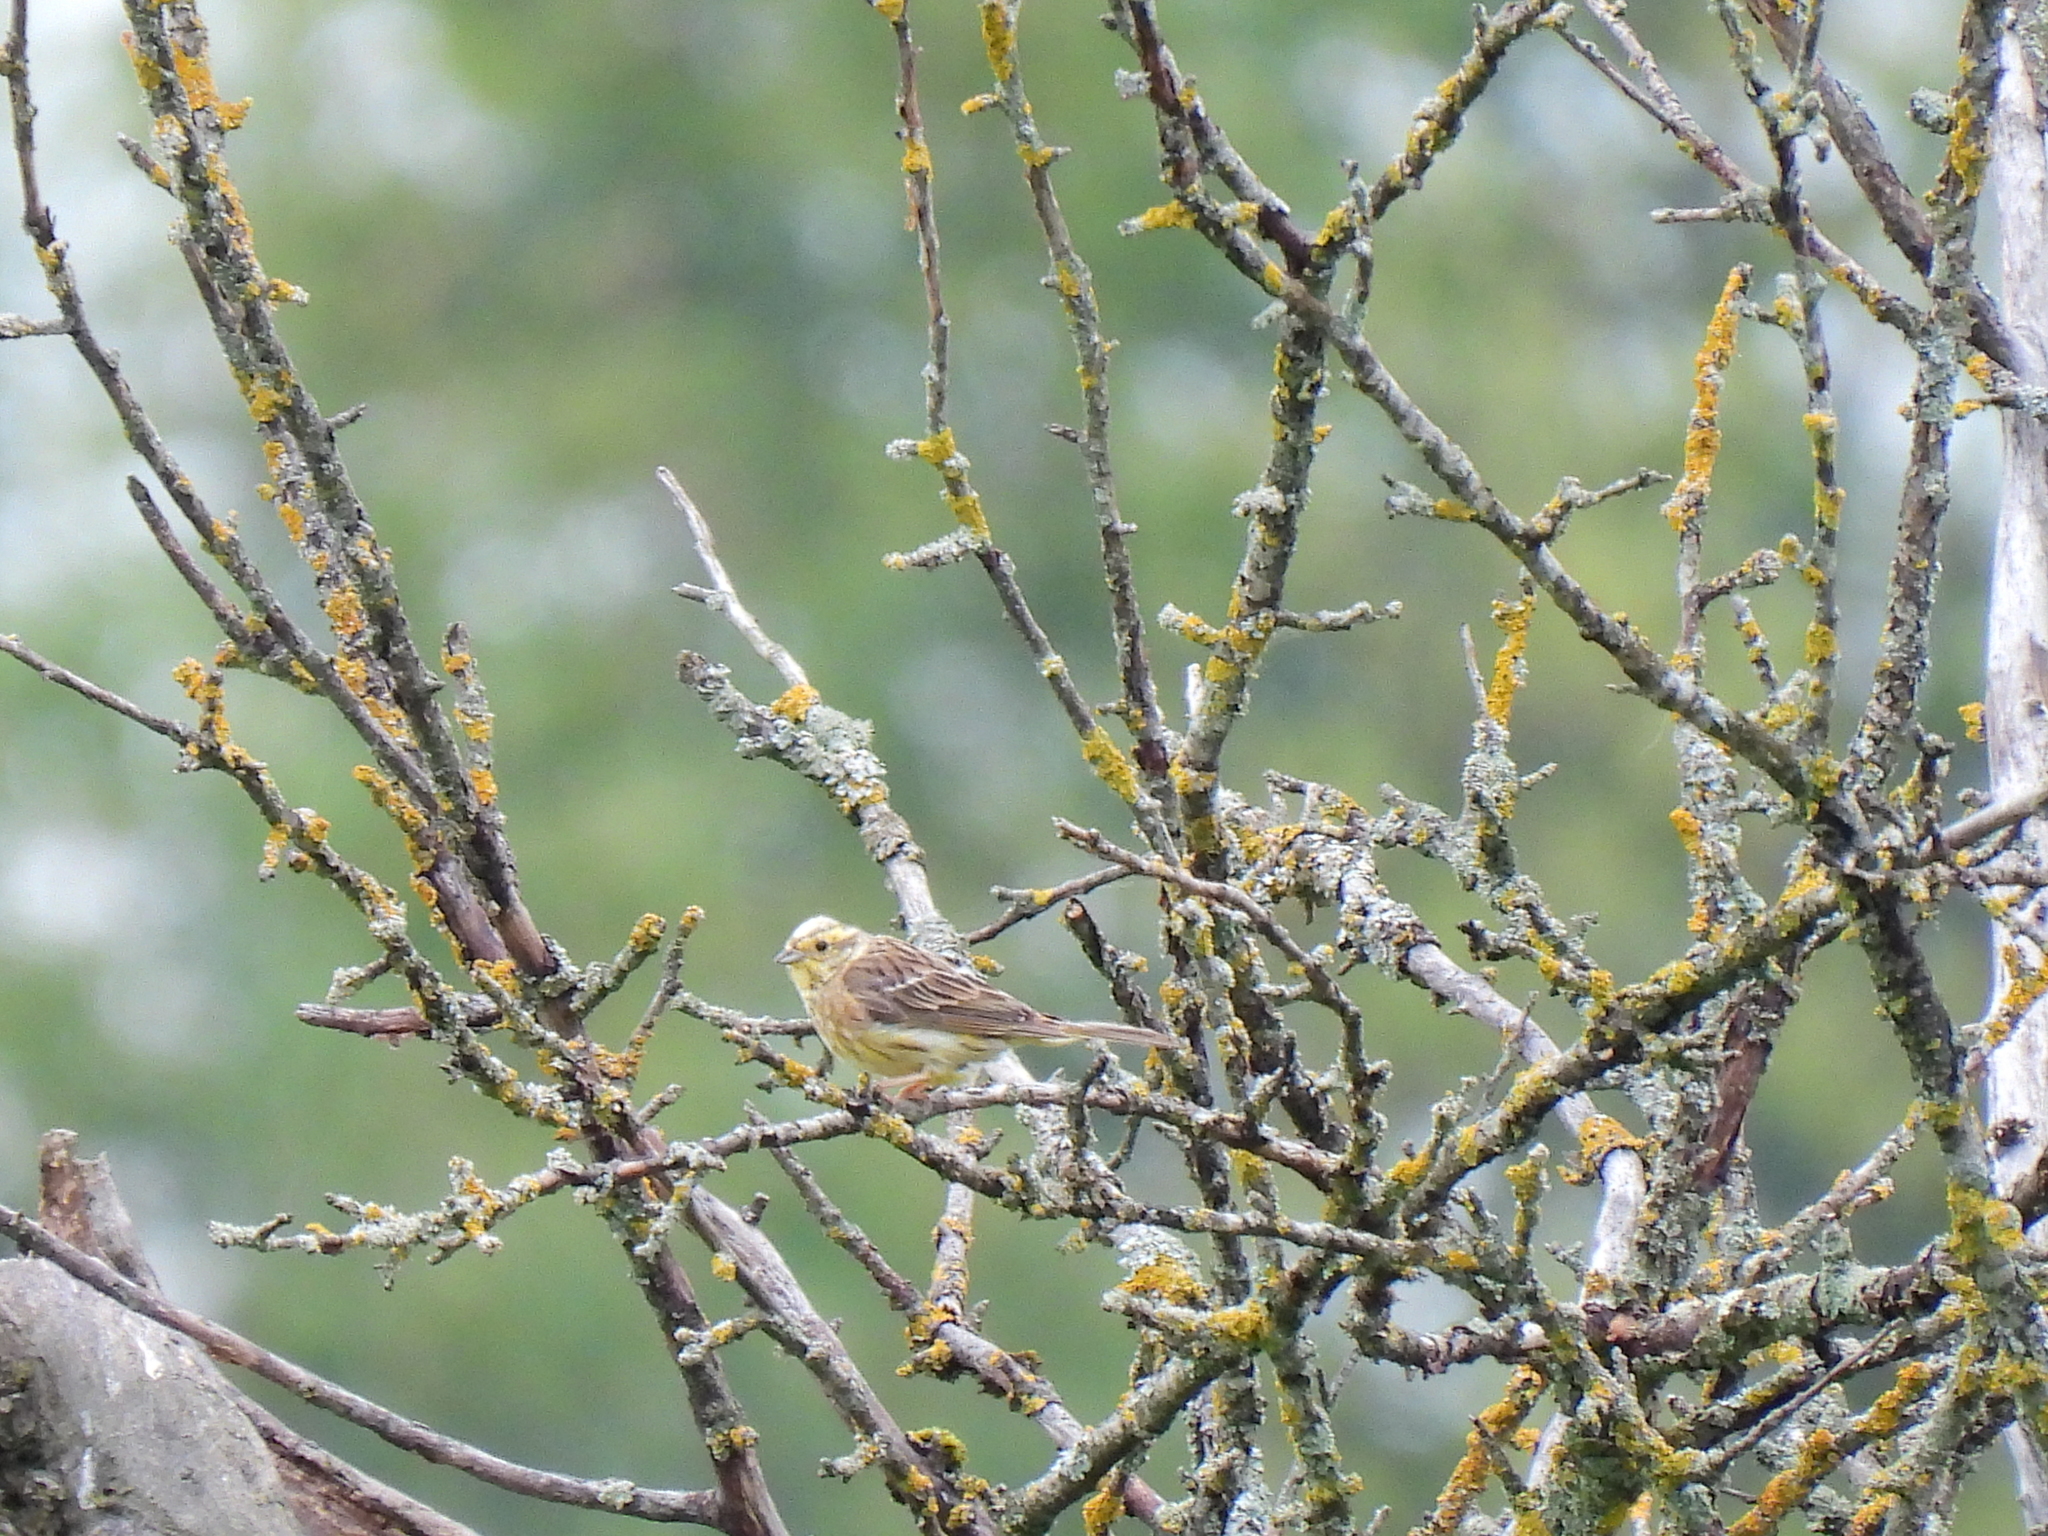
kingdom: Animalia
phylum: Chordata
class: Aves
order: Passeriformes
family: Emberizidae
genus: Emberiza
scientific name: Emberiza citrinella
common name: Yellowhammer
